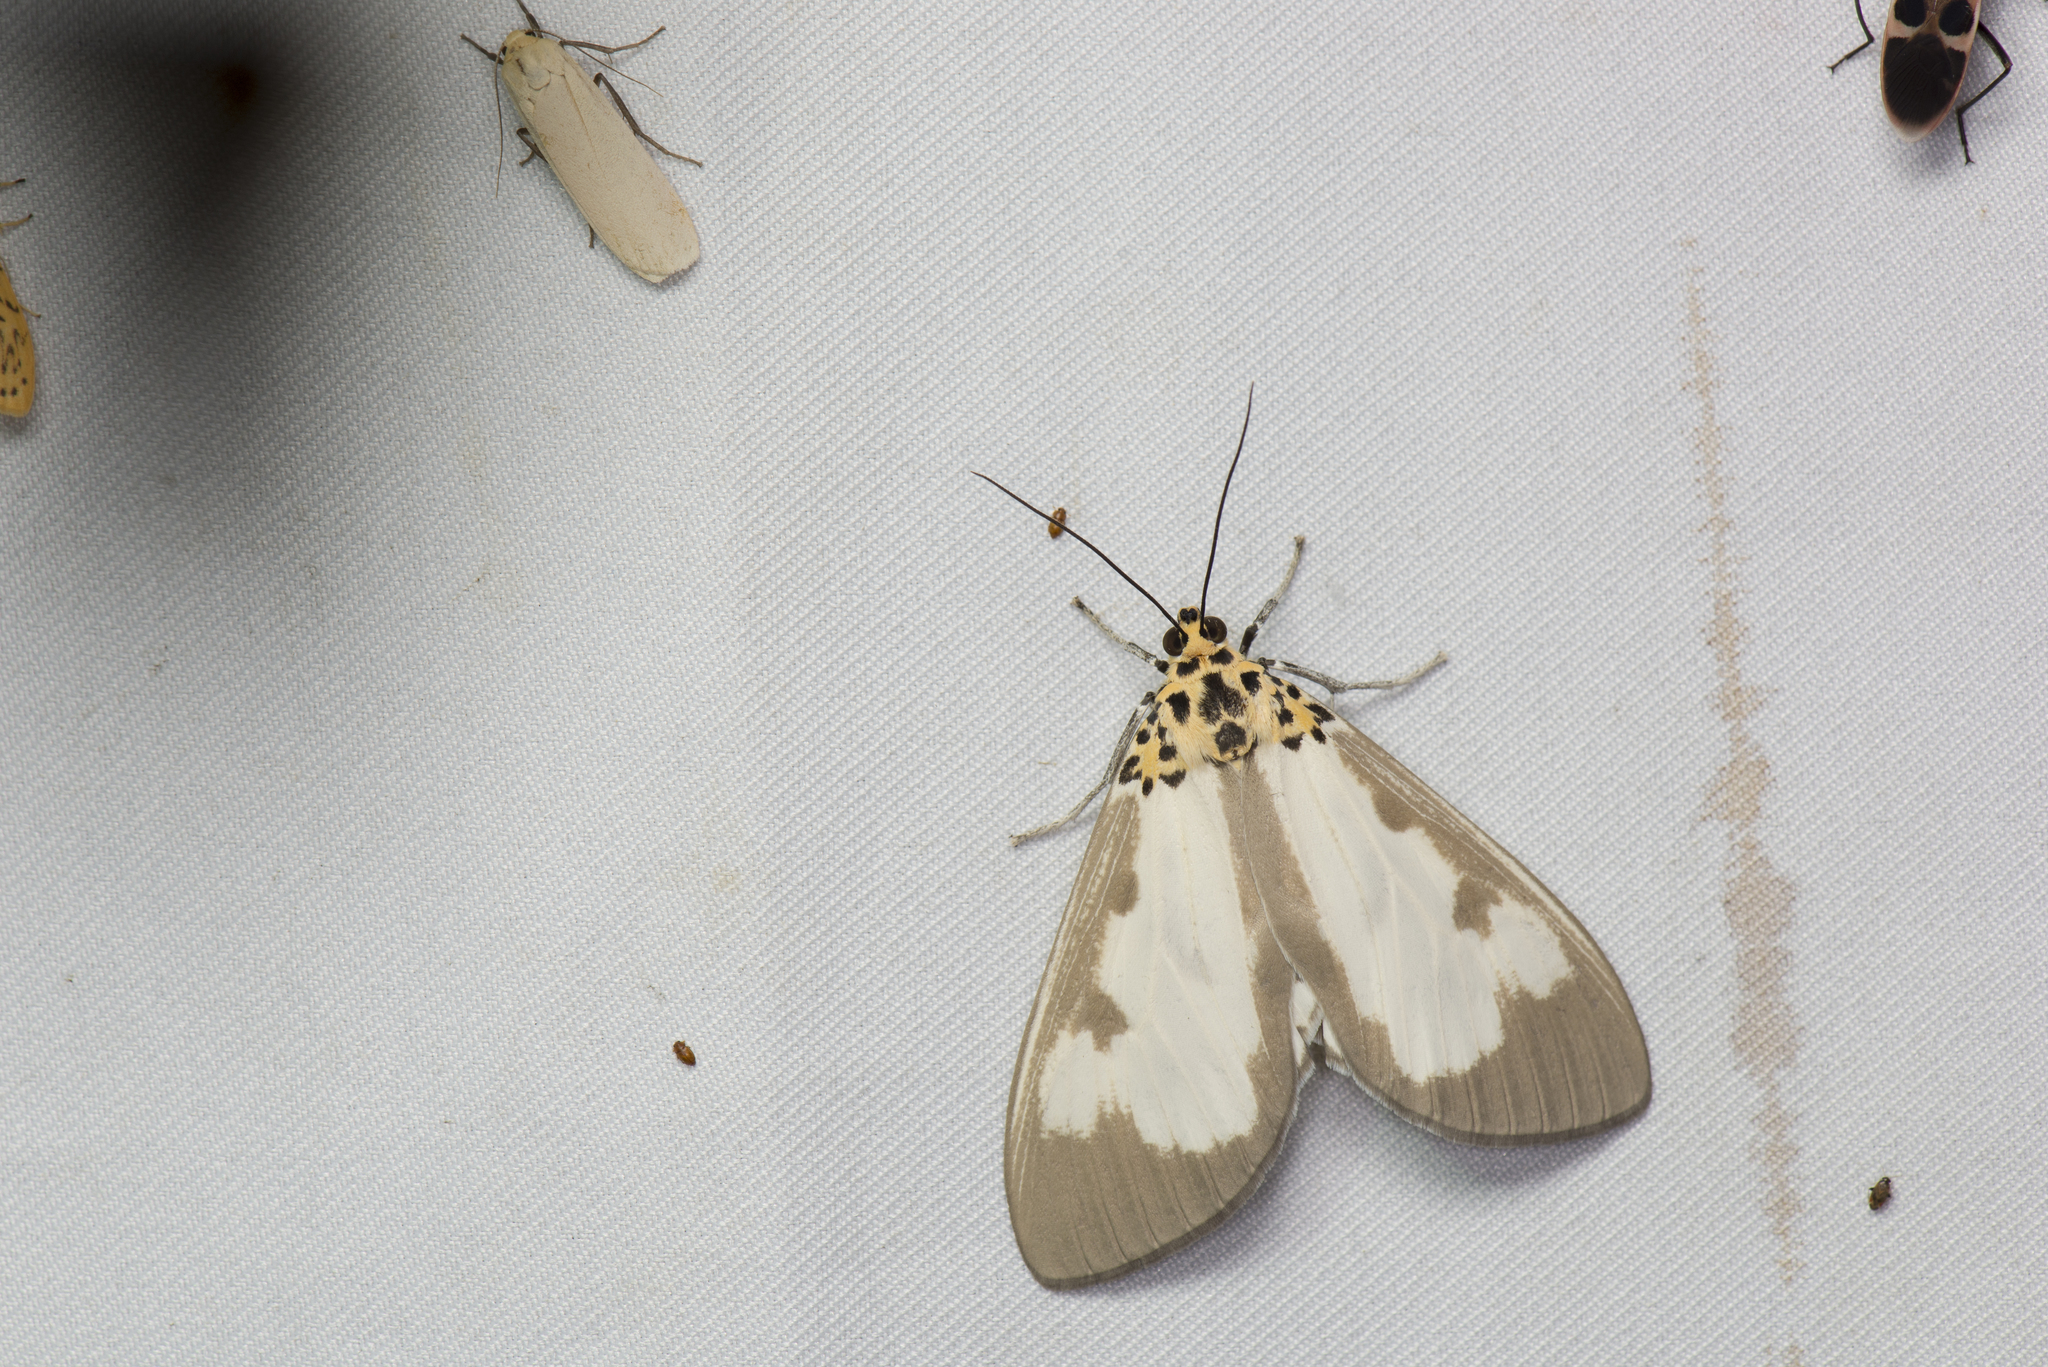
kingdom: Animalia
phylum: Arthropoda
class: Insecta
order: Lepidoptera
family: Erebidae
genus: Asota
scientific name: Asota plana
